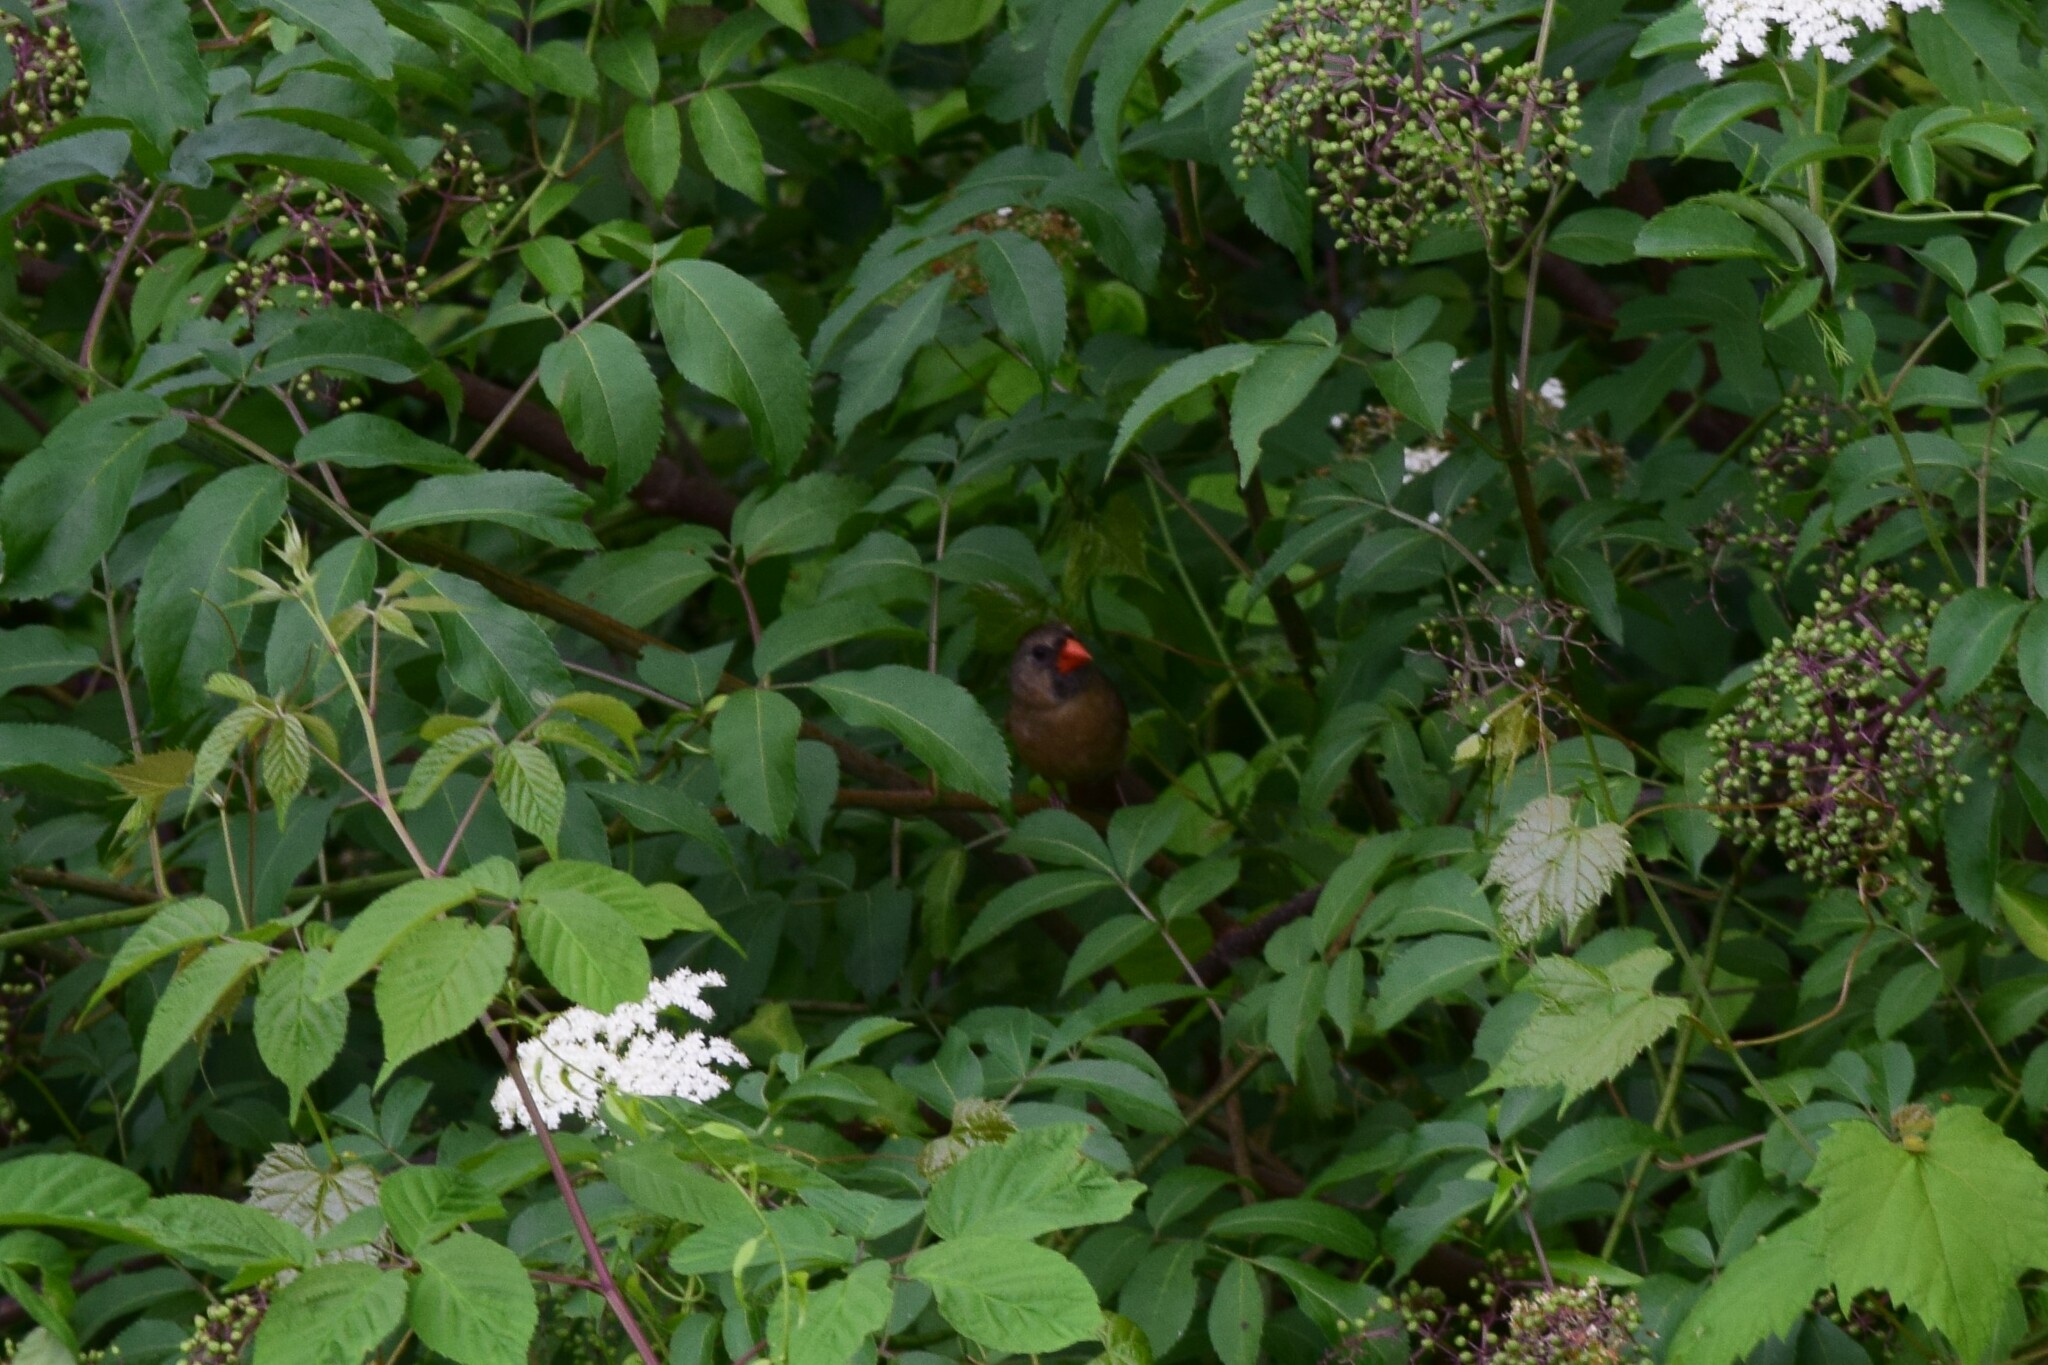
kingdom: Animalia
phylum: Chordata
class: Aves
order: Passeriformes
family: Cardinalidae
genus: Cardinalis
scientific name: Cardinalis cardinalis
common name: Northern cardinal
